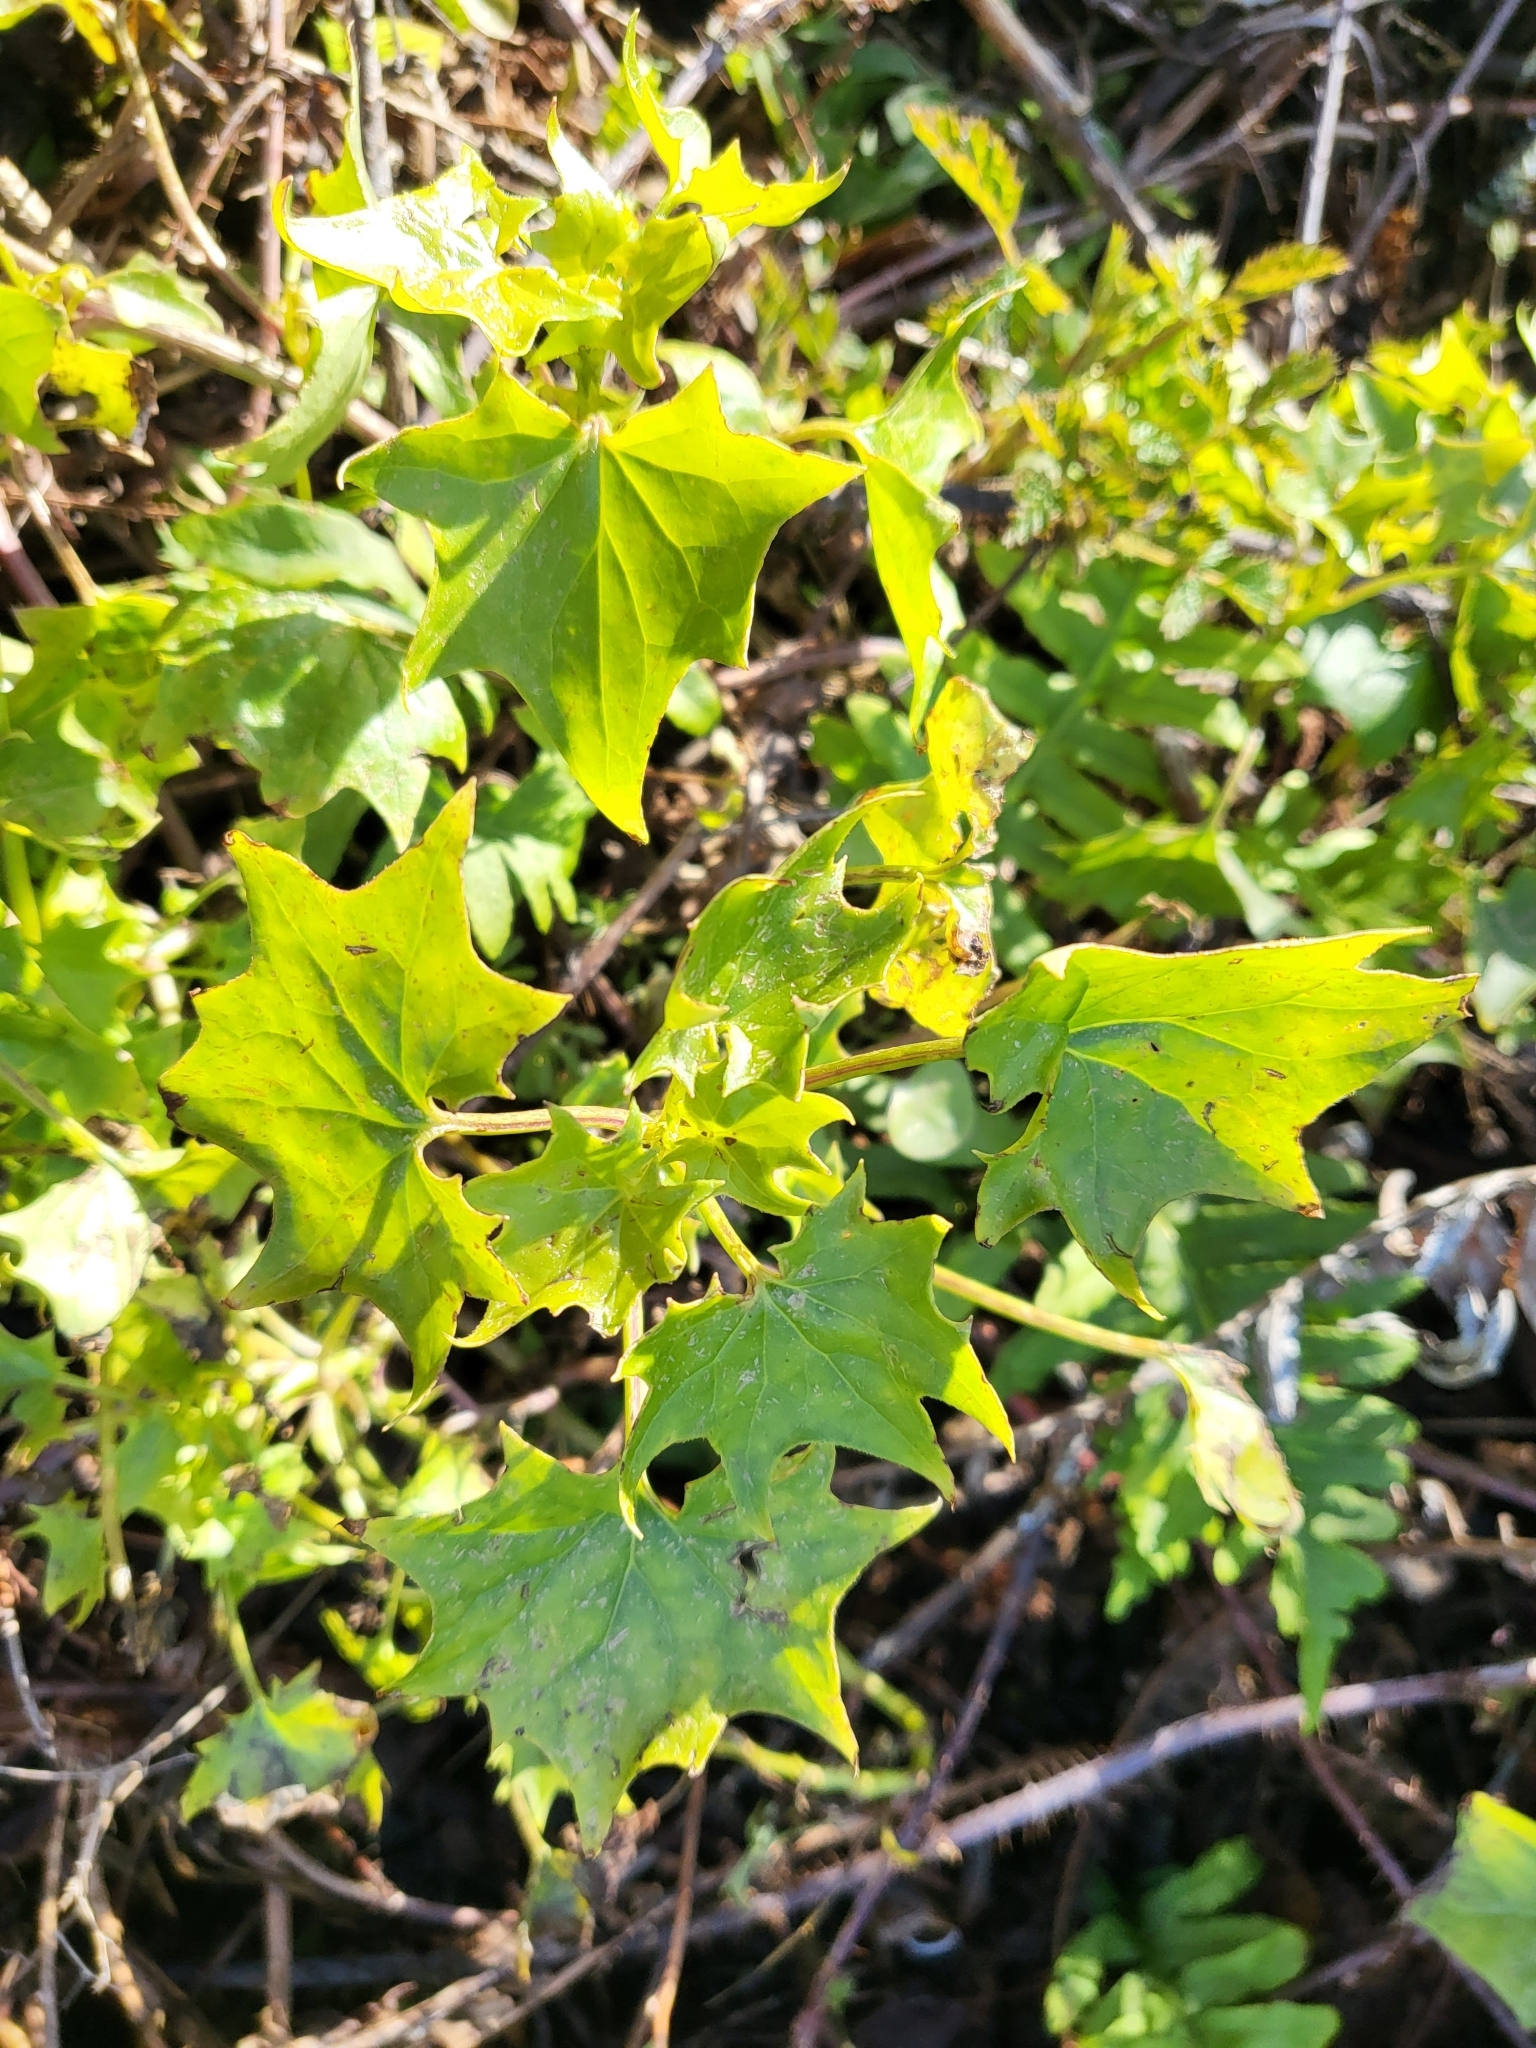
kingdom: Plantae
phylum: Tracheophyta
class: Magnoliopsida
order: Asterales
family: Asteraceae
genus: Delairea
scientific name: Delairea odorata
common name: Cape-ivy
